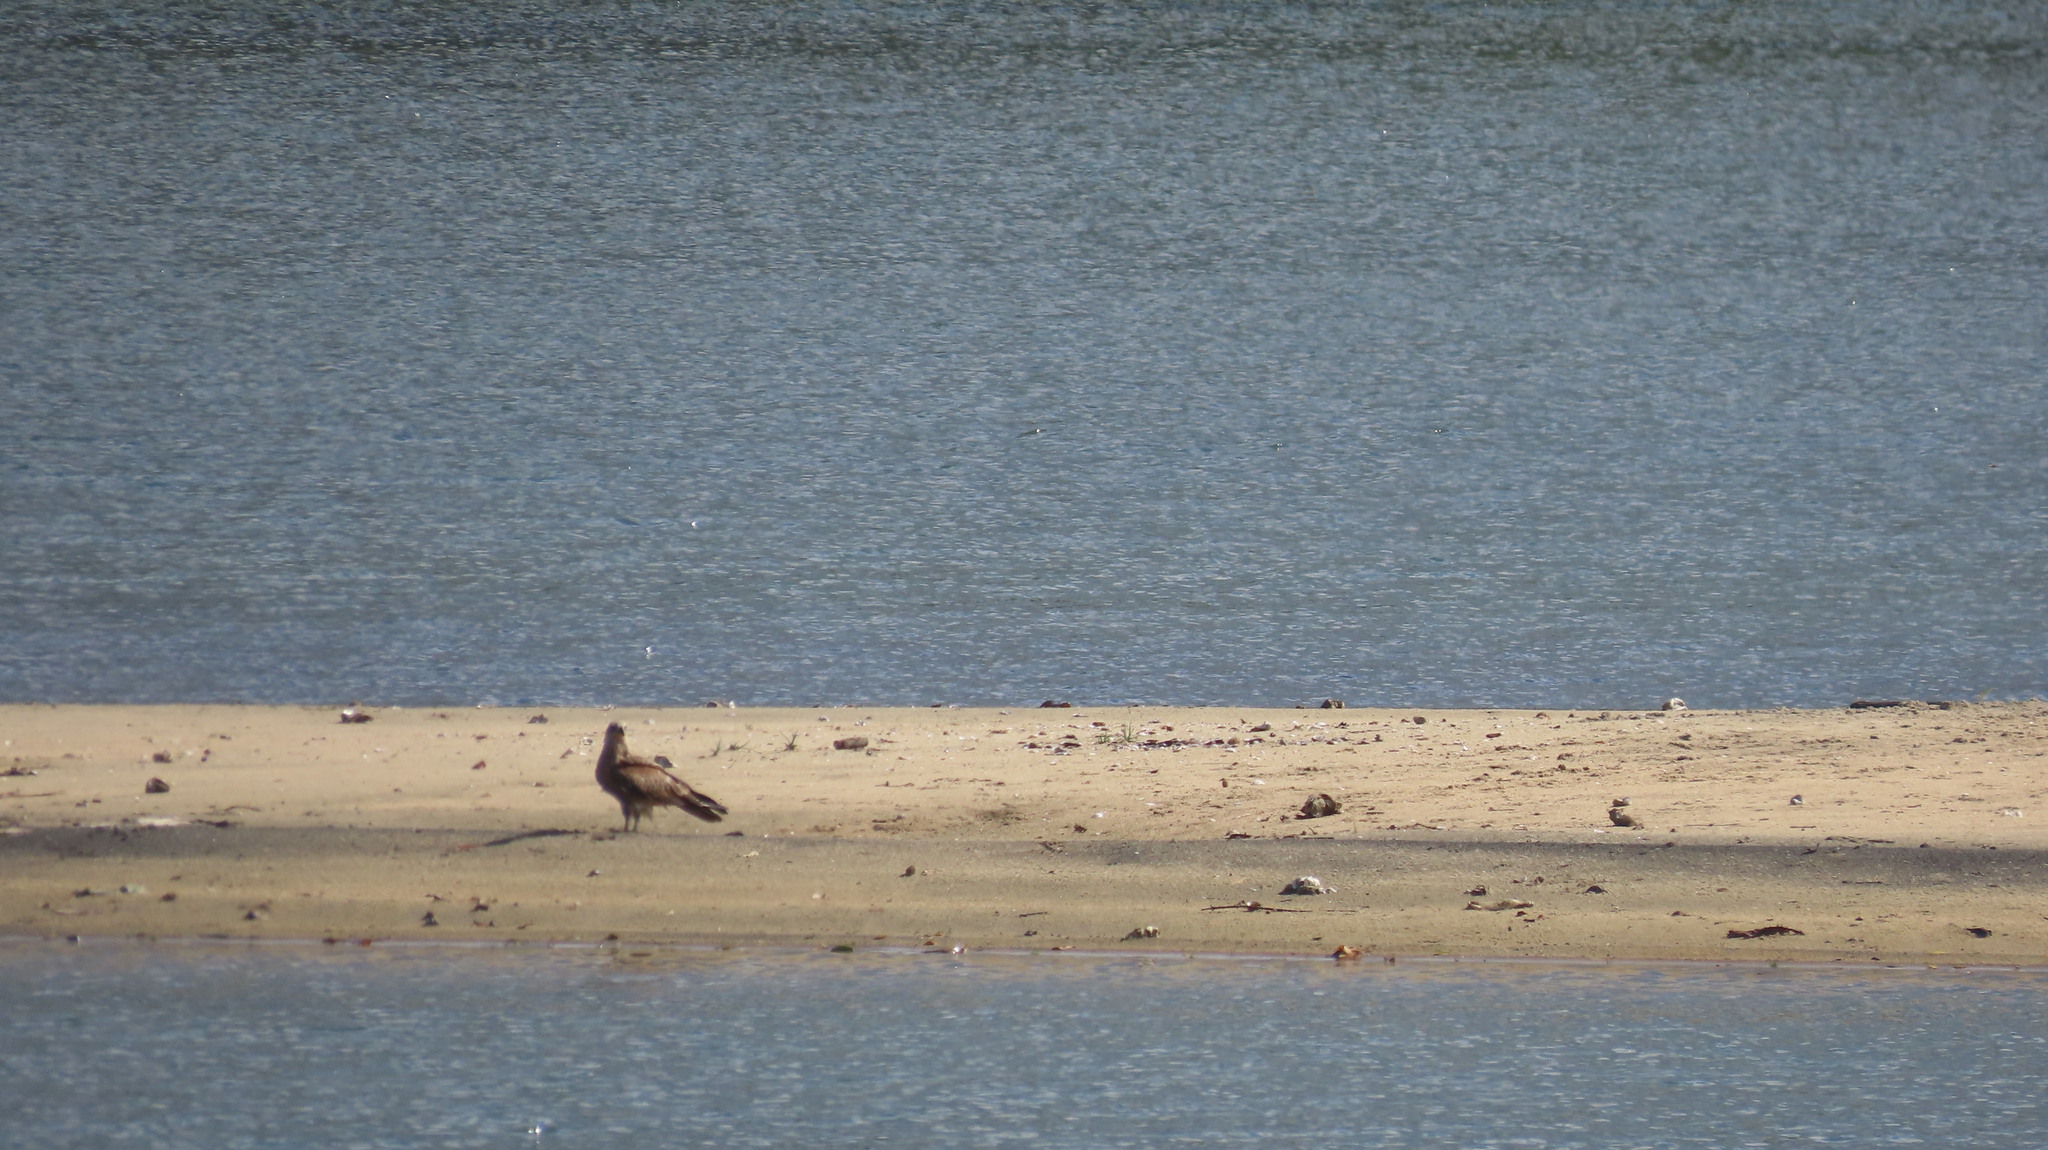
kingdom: Animalia
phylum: Chordata
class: Aves
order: Accipitriformes
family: Accipitridae
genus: Haliastur
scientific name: Haliastur indus
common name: Brahminy kite
